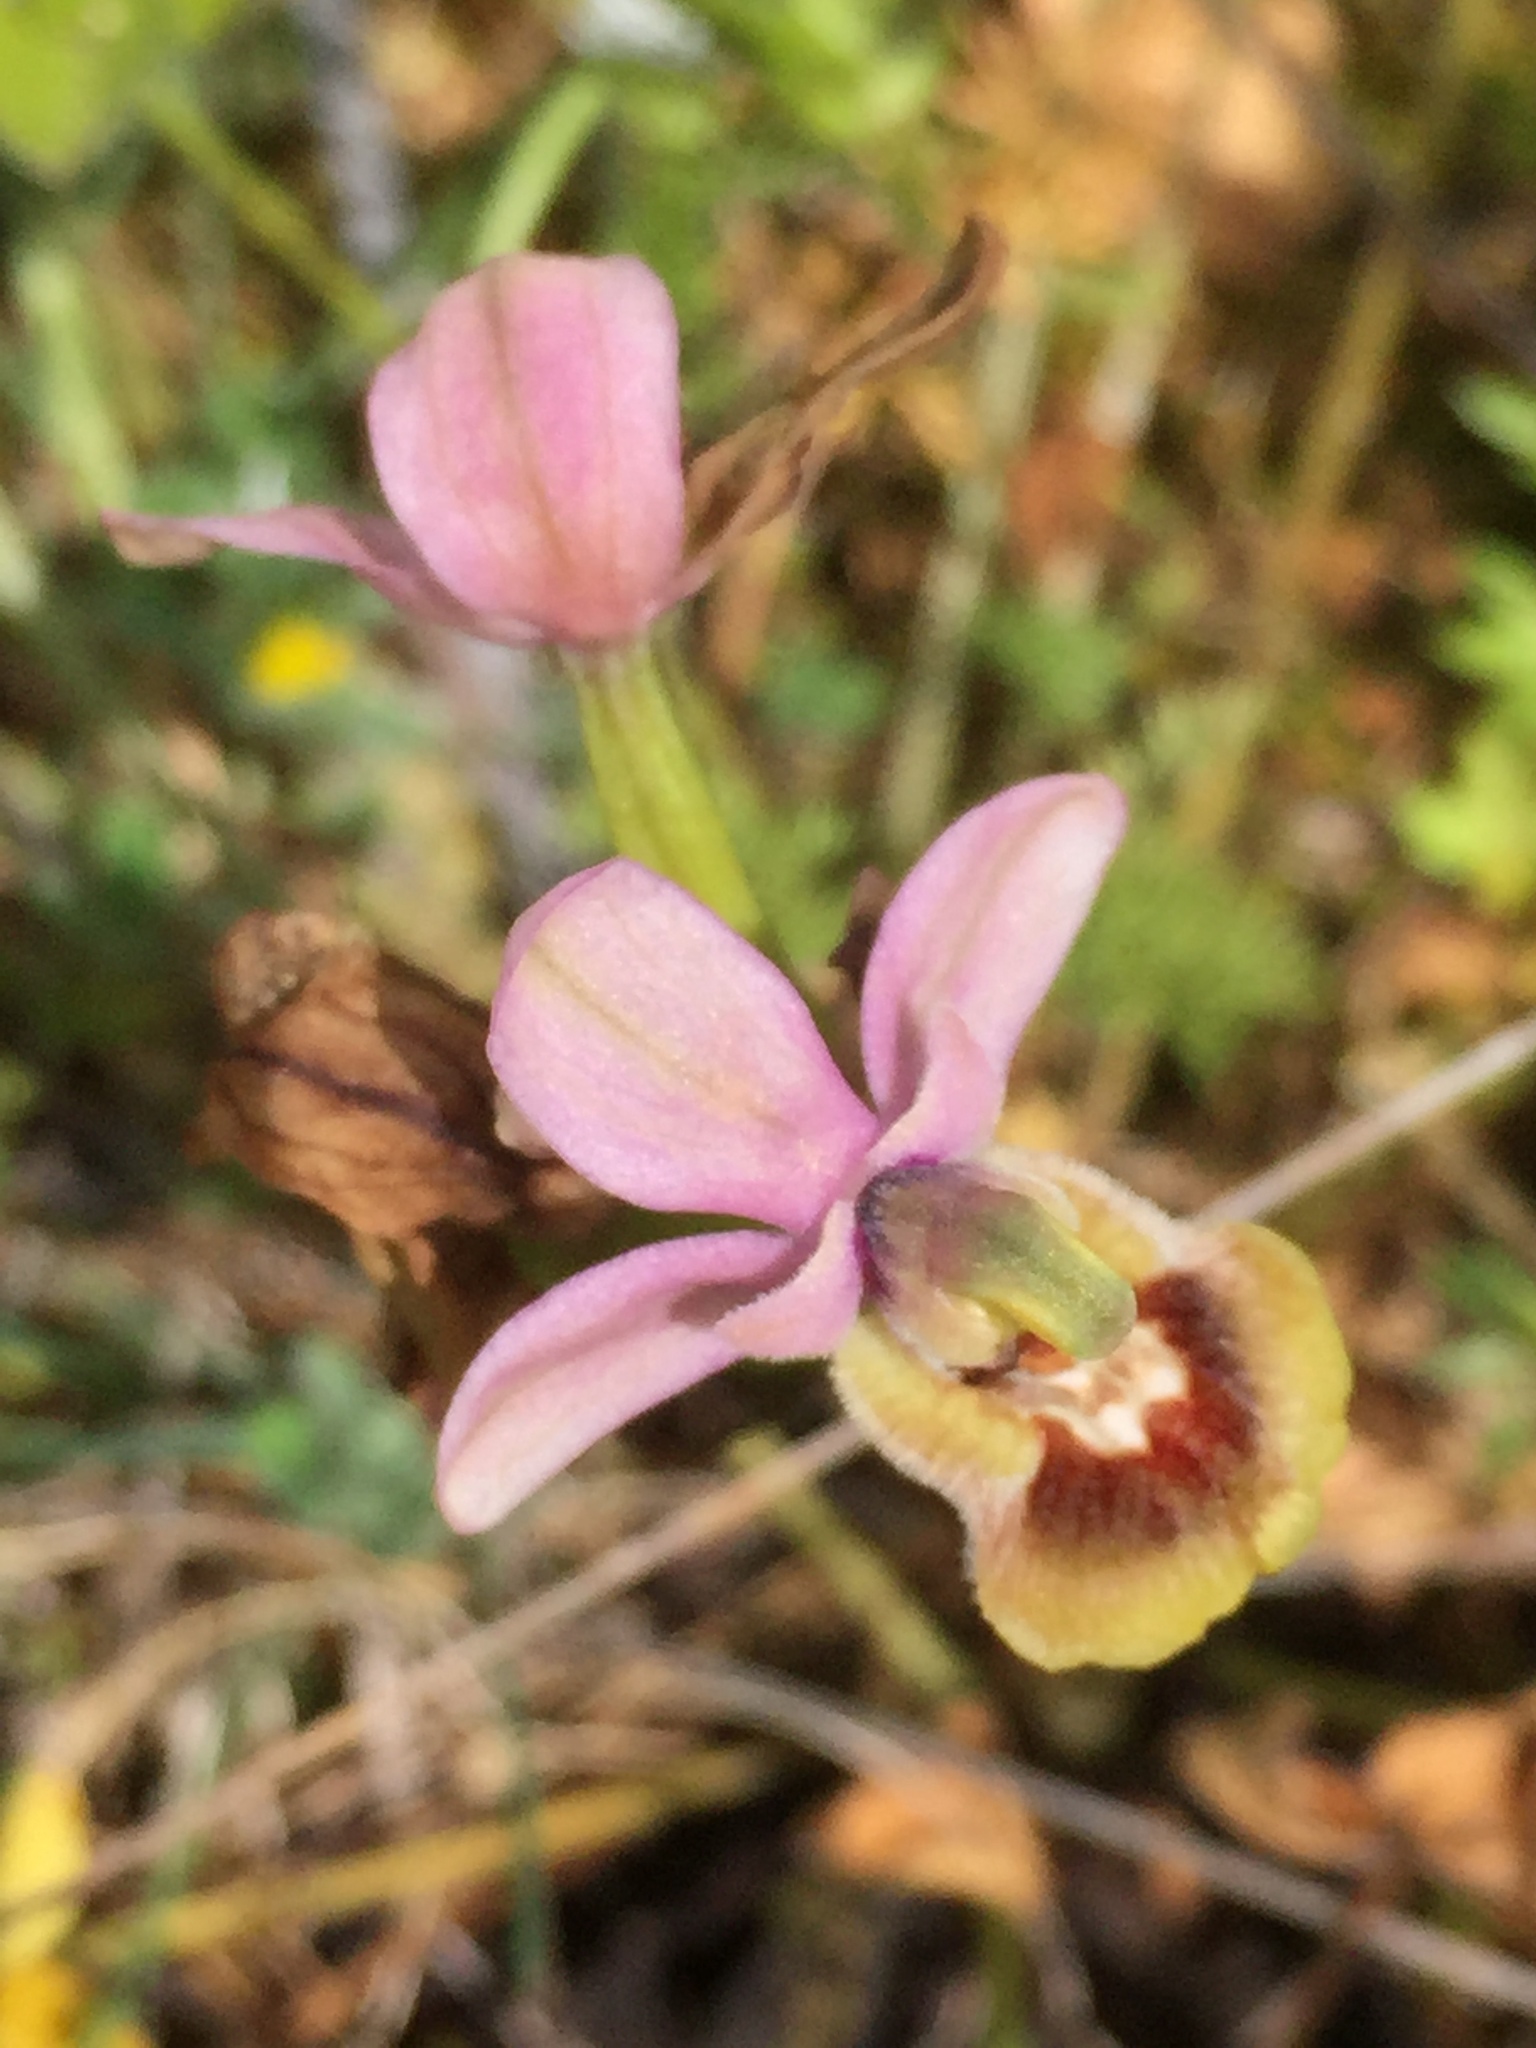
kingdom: Plantae
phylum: Tracheophyta
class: Liliopsida
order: Asparagales
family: Orchidaceae
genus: Ophrys
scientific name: Ophrys tenthredinifera
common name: Sawfly orchid
